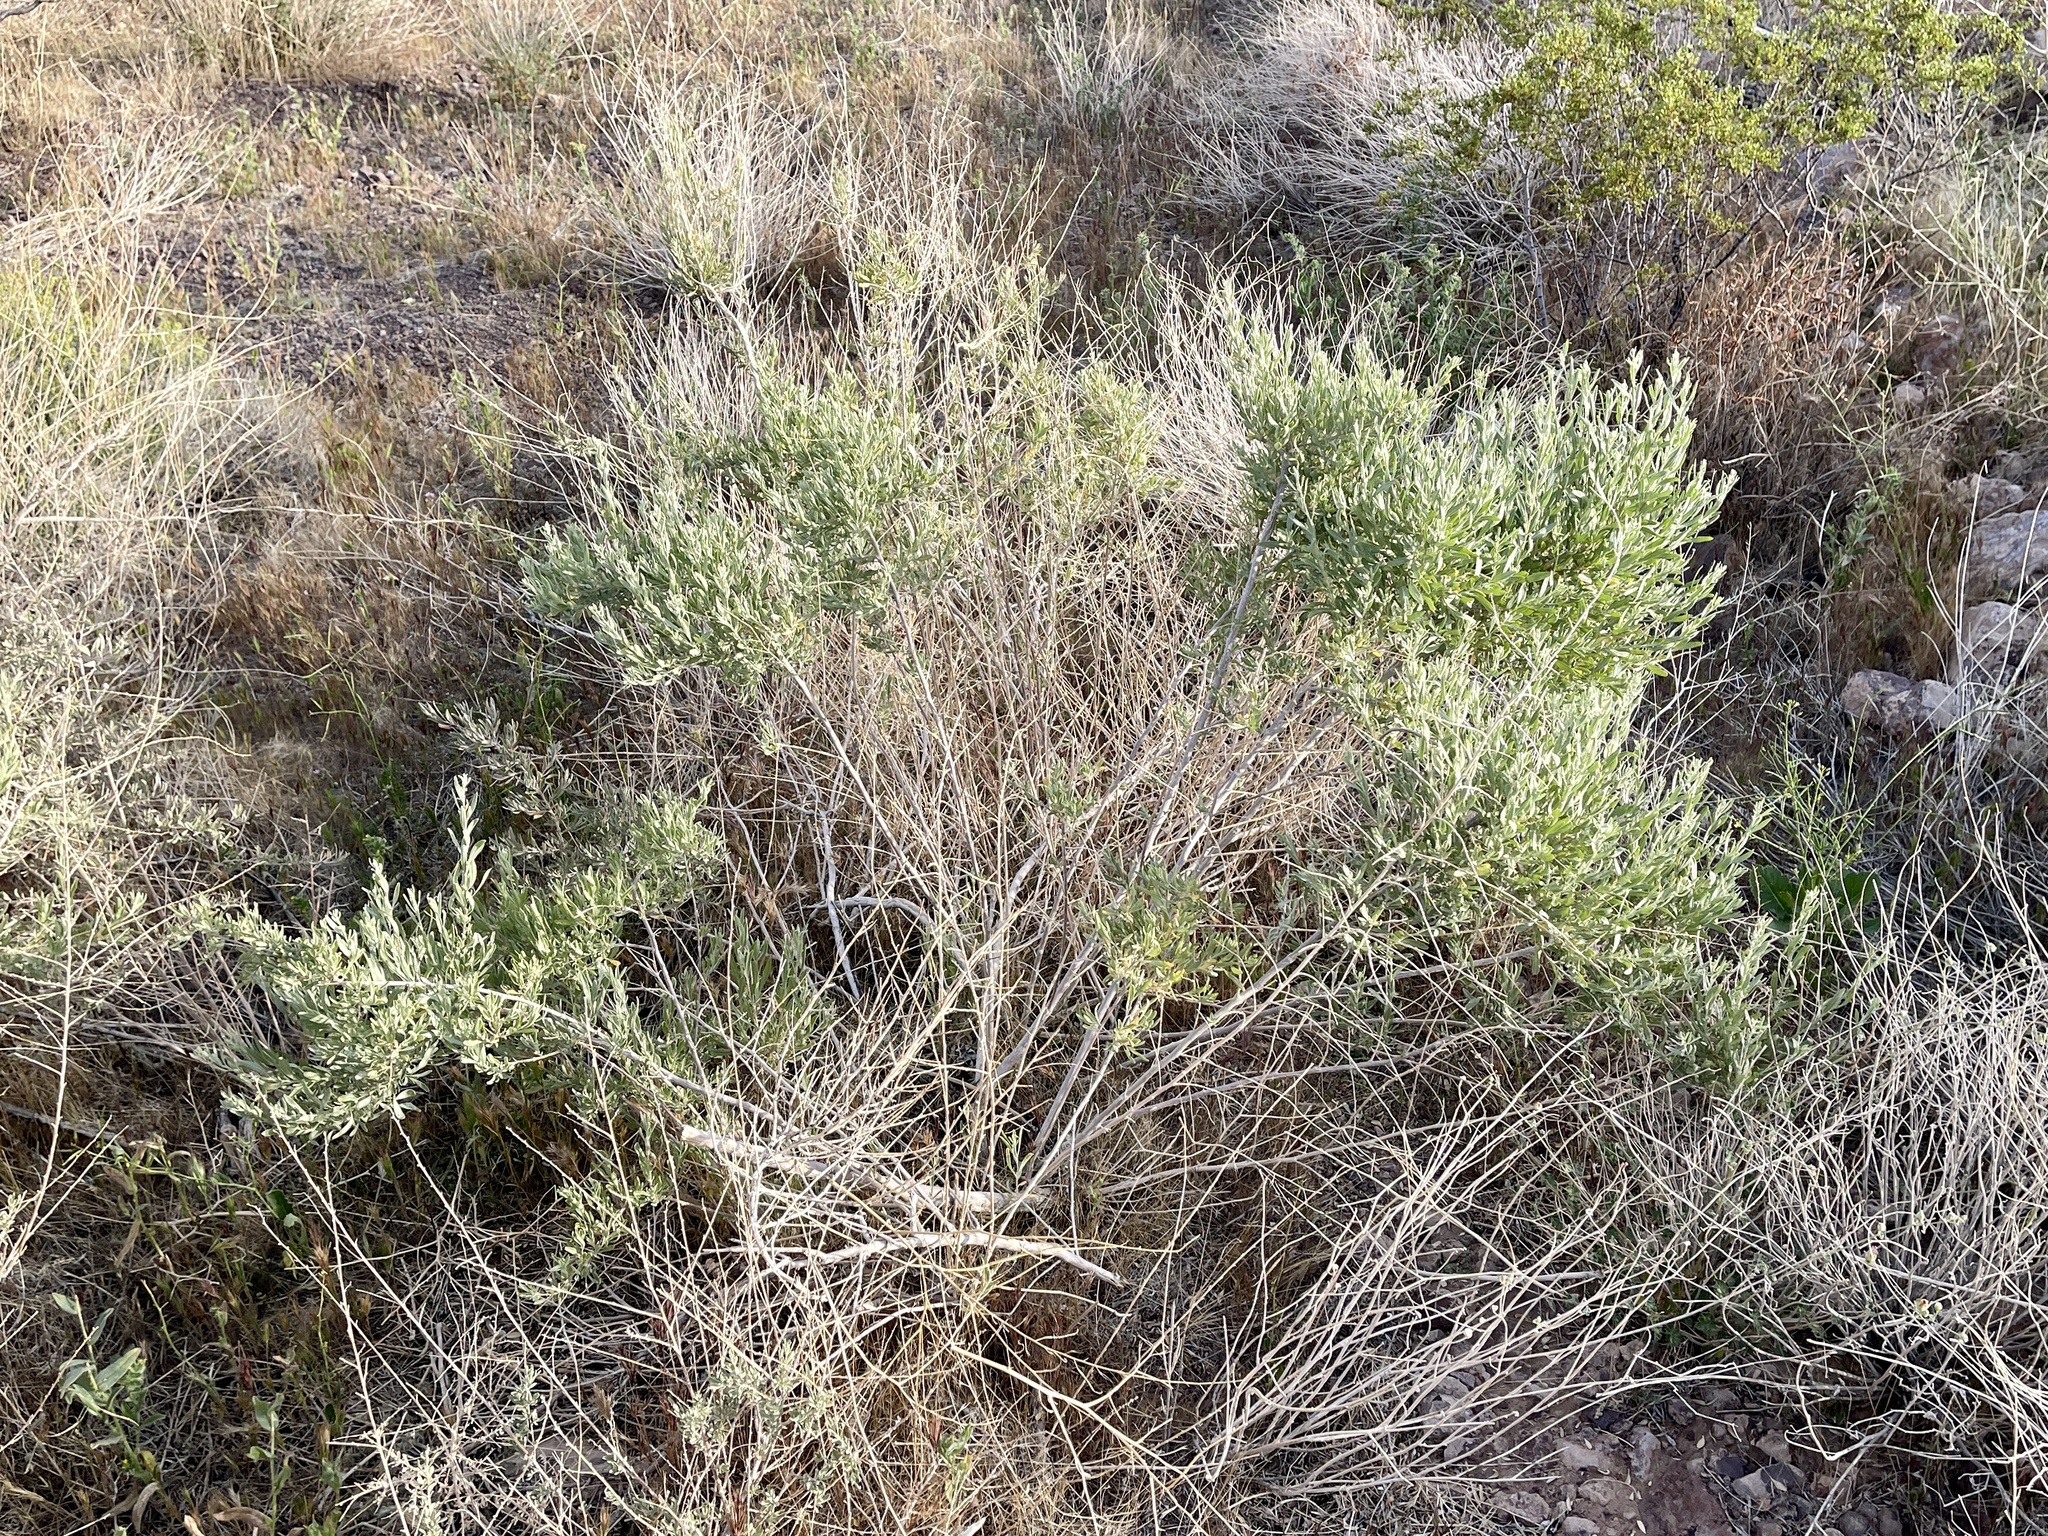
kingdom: Plantae
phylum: Tracheophyta
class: Magnoliopsida
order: Caryophyllales
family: Amaranthaceae
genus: Atriplex
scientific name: Atriplex canescens
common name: Four-wing saltbush
